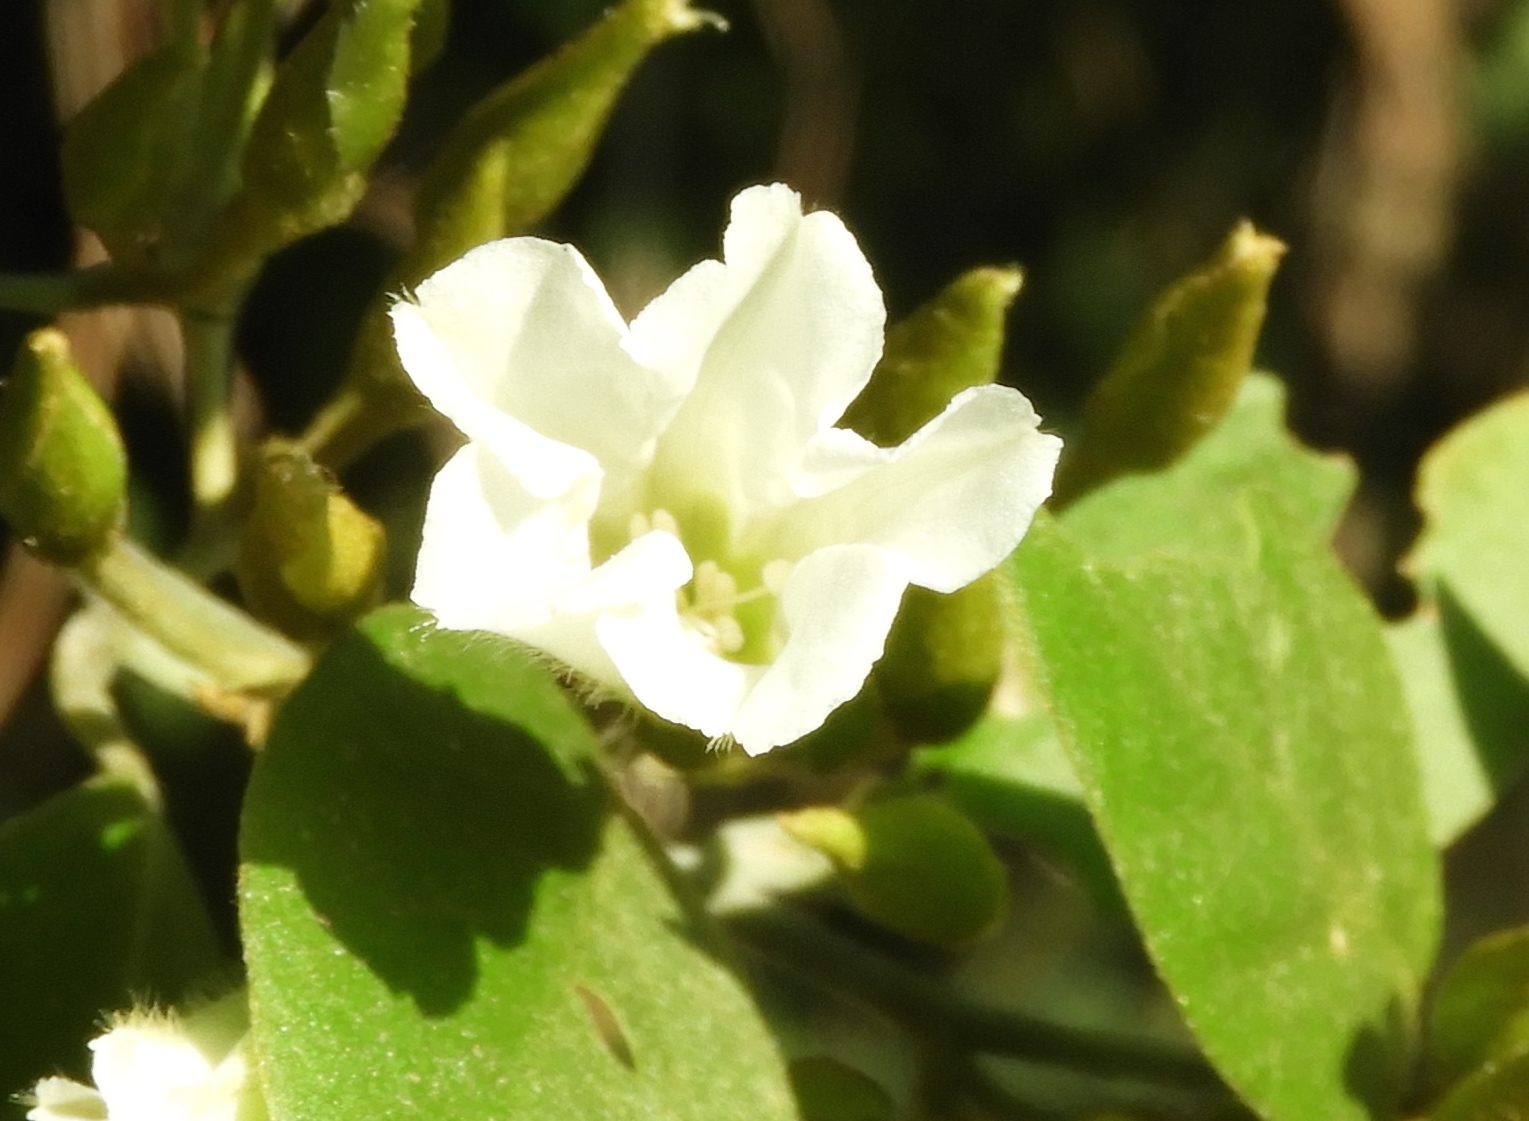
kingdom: Plantae
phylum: Tracheophyta
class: Magnoliopsida
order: Solanales
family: Convolvulaceae
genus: Bonamia
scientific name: Bonamia sulphurea
